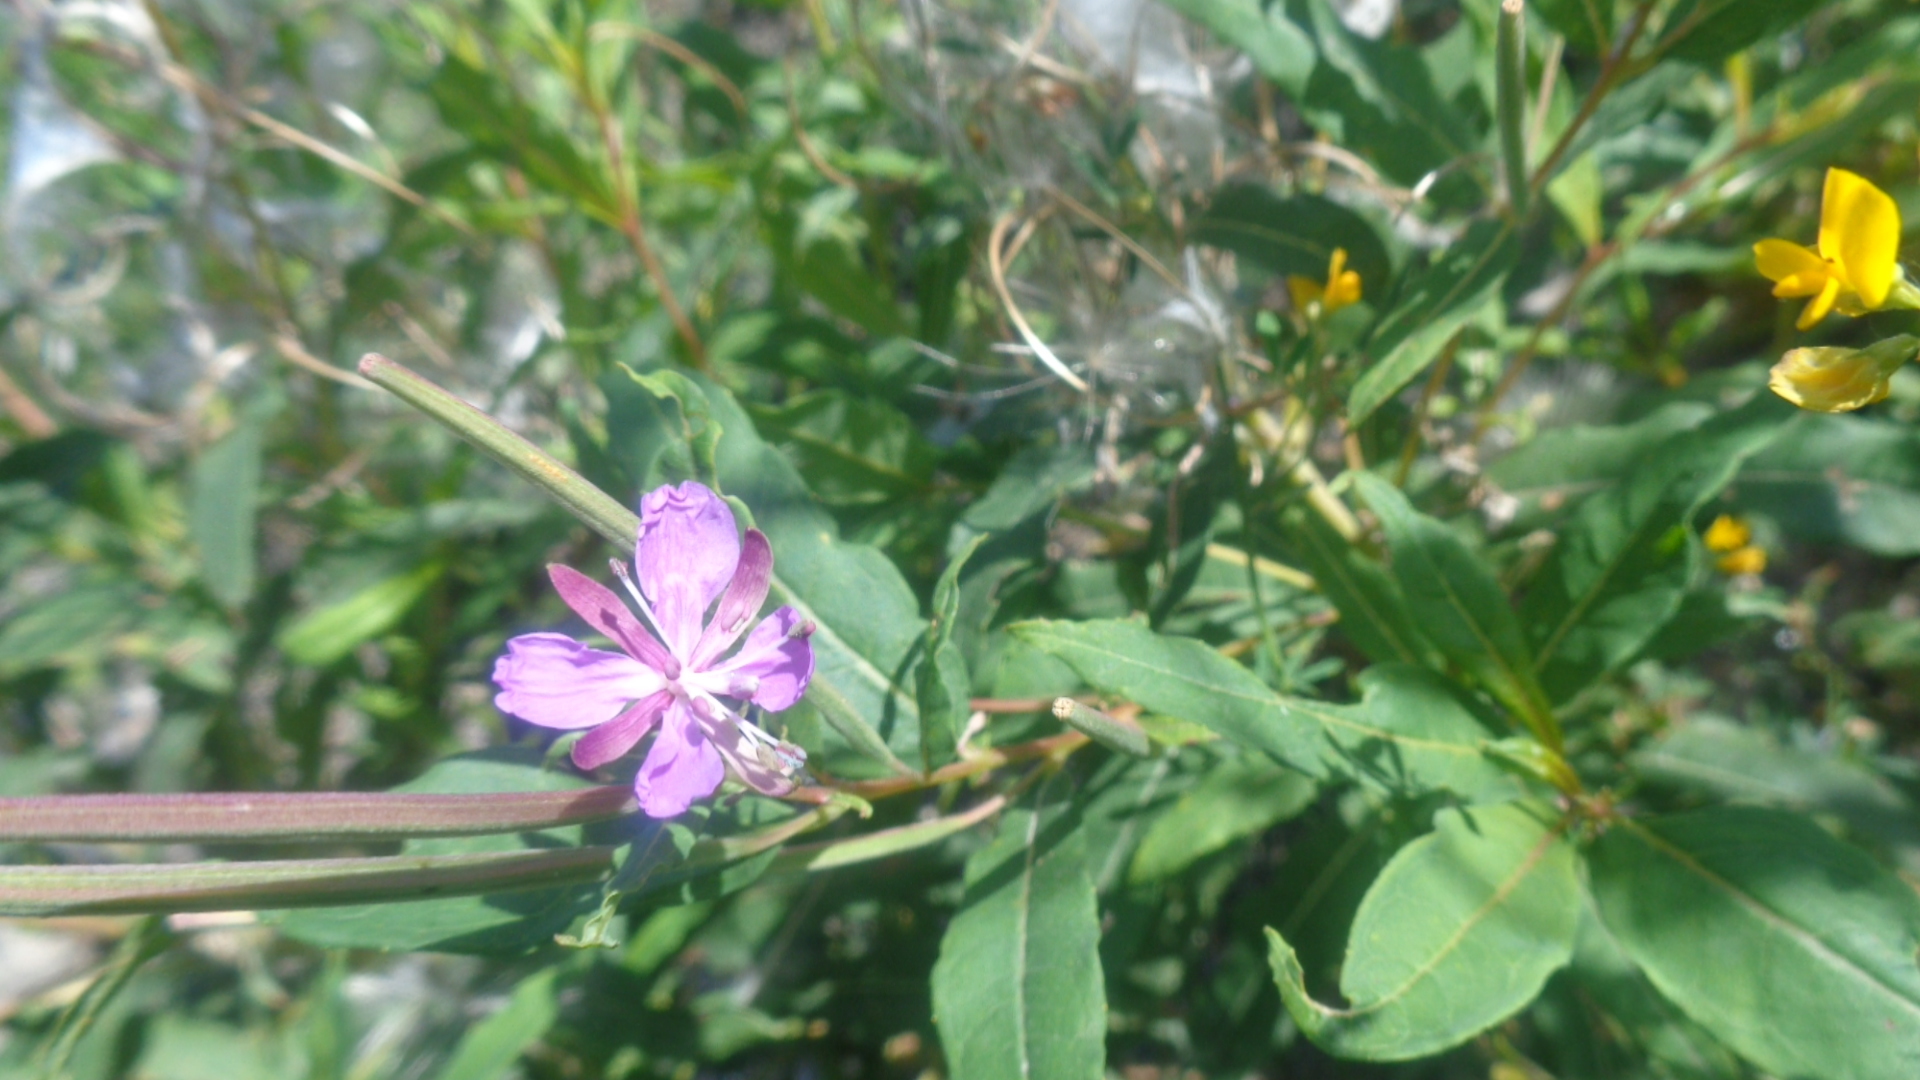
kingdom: Plantae
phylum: Tracheophyta
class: Magnoliopsida
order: Myrtales
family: Onagraceae
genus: Chamaenerion
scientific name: Chamaenerion angustifolium
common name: Fireweed
